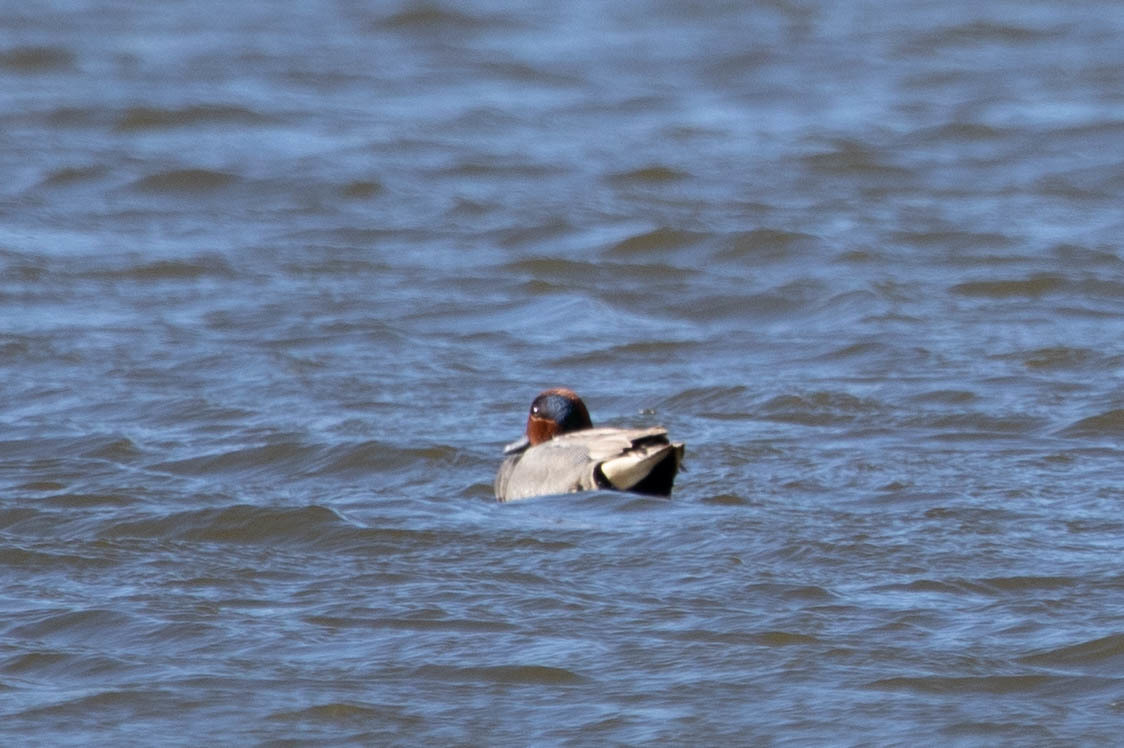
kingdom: Animalia
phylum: Chordata
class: Aves
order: Anseriformes
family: Anatidae
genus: Anas
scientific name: Anas crecca
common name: Eurasian teal
